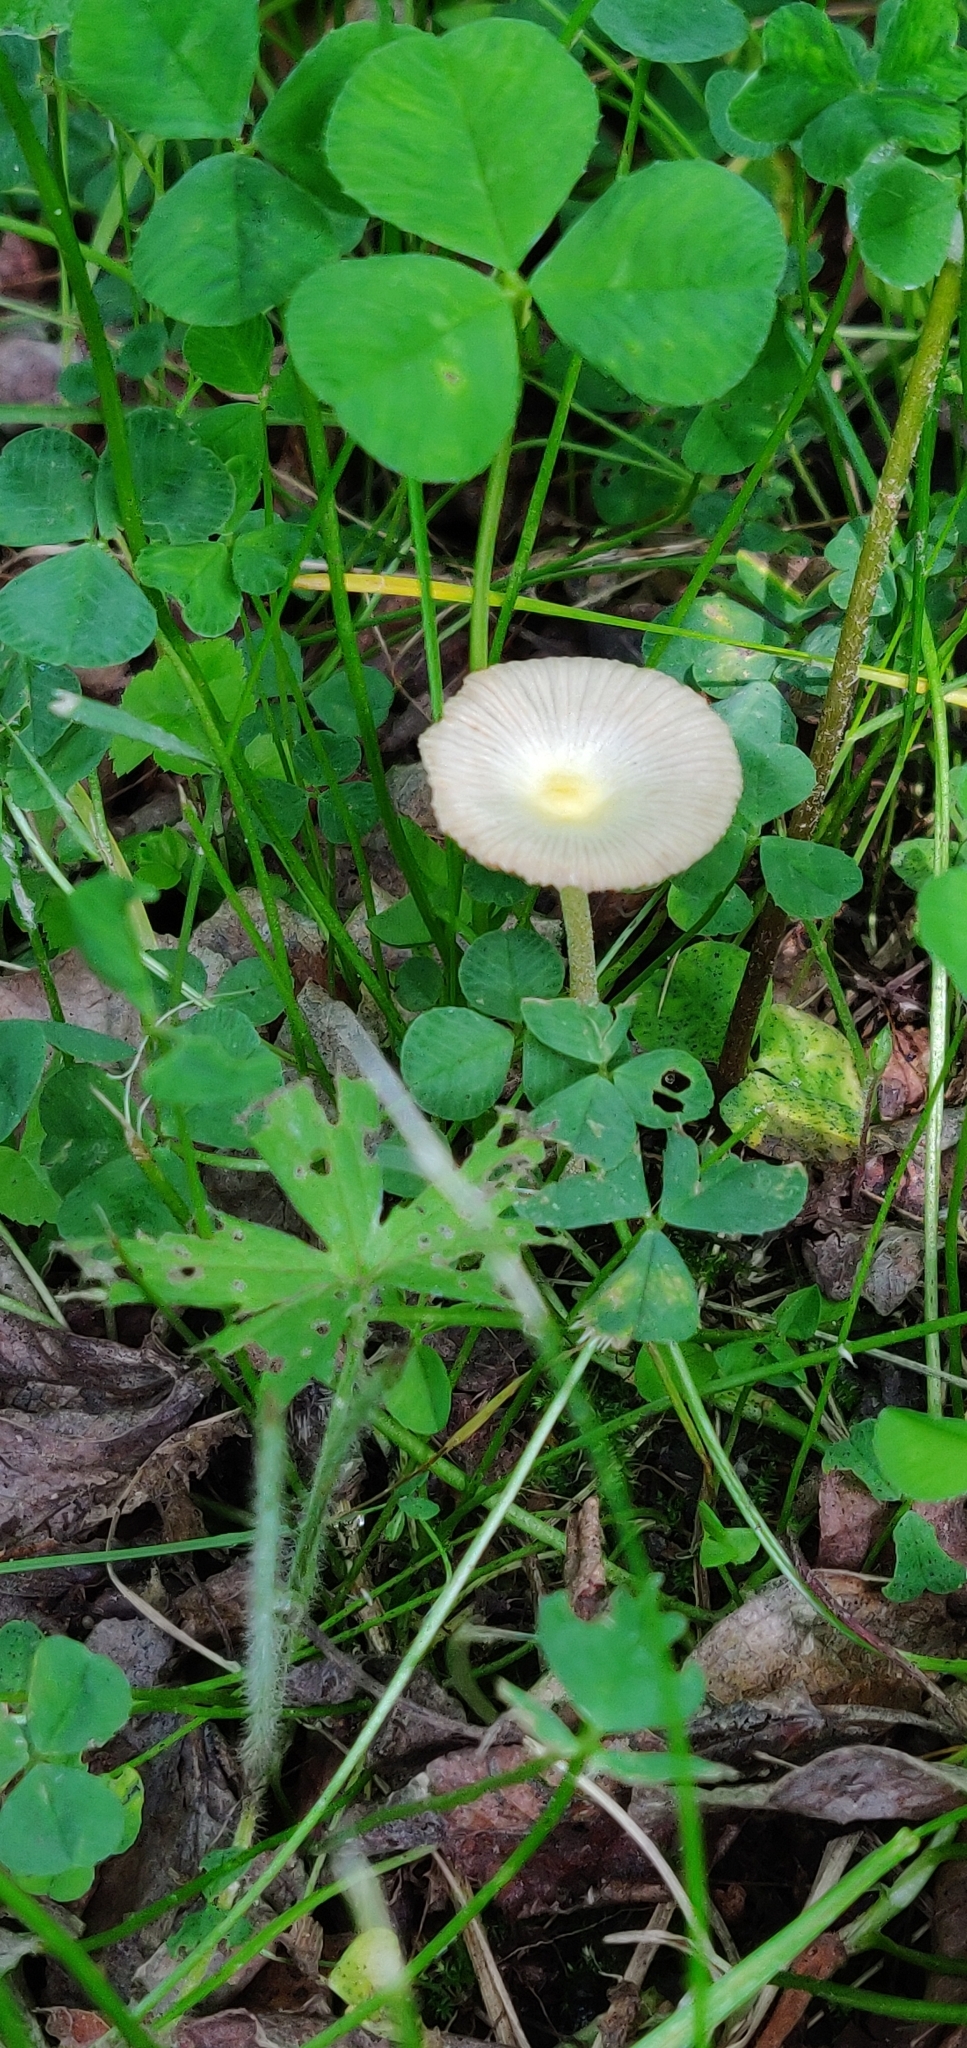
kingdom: Fungi
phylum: Basidiomycota
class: Agaricomycetes
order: Agaricales
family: Bolbitiaceae
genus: Bolbitius
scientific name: Bolbitius coprophilus
